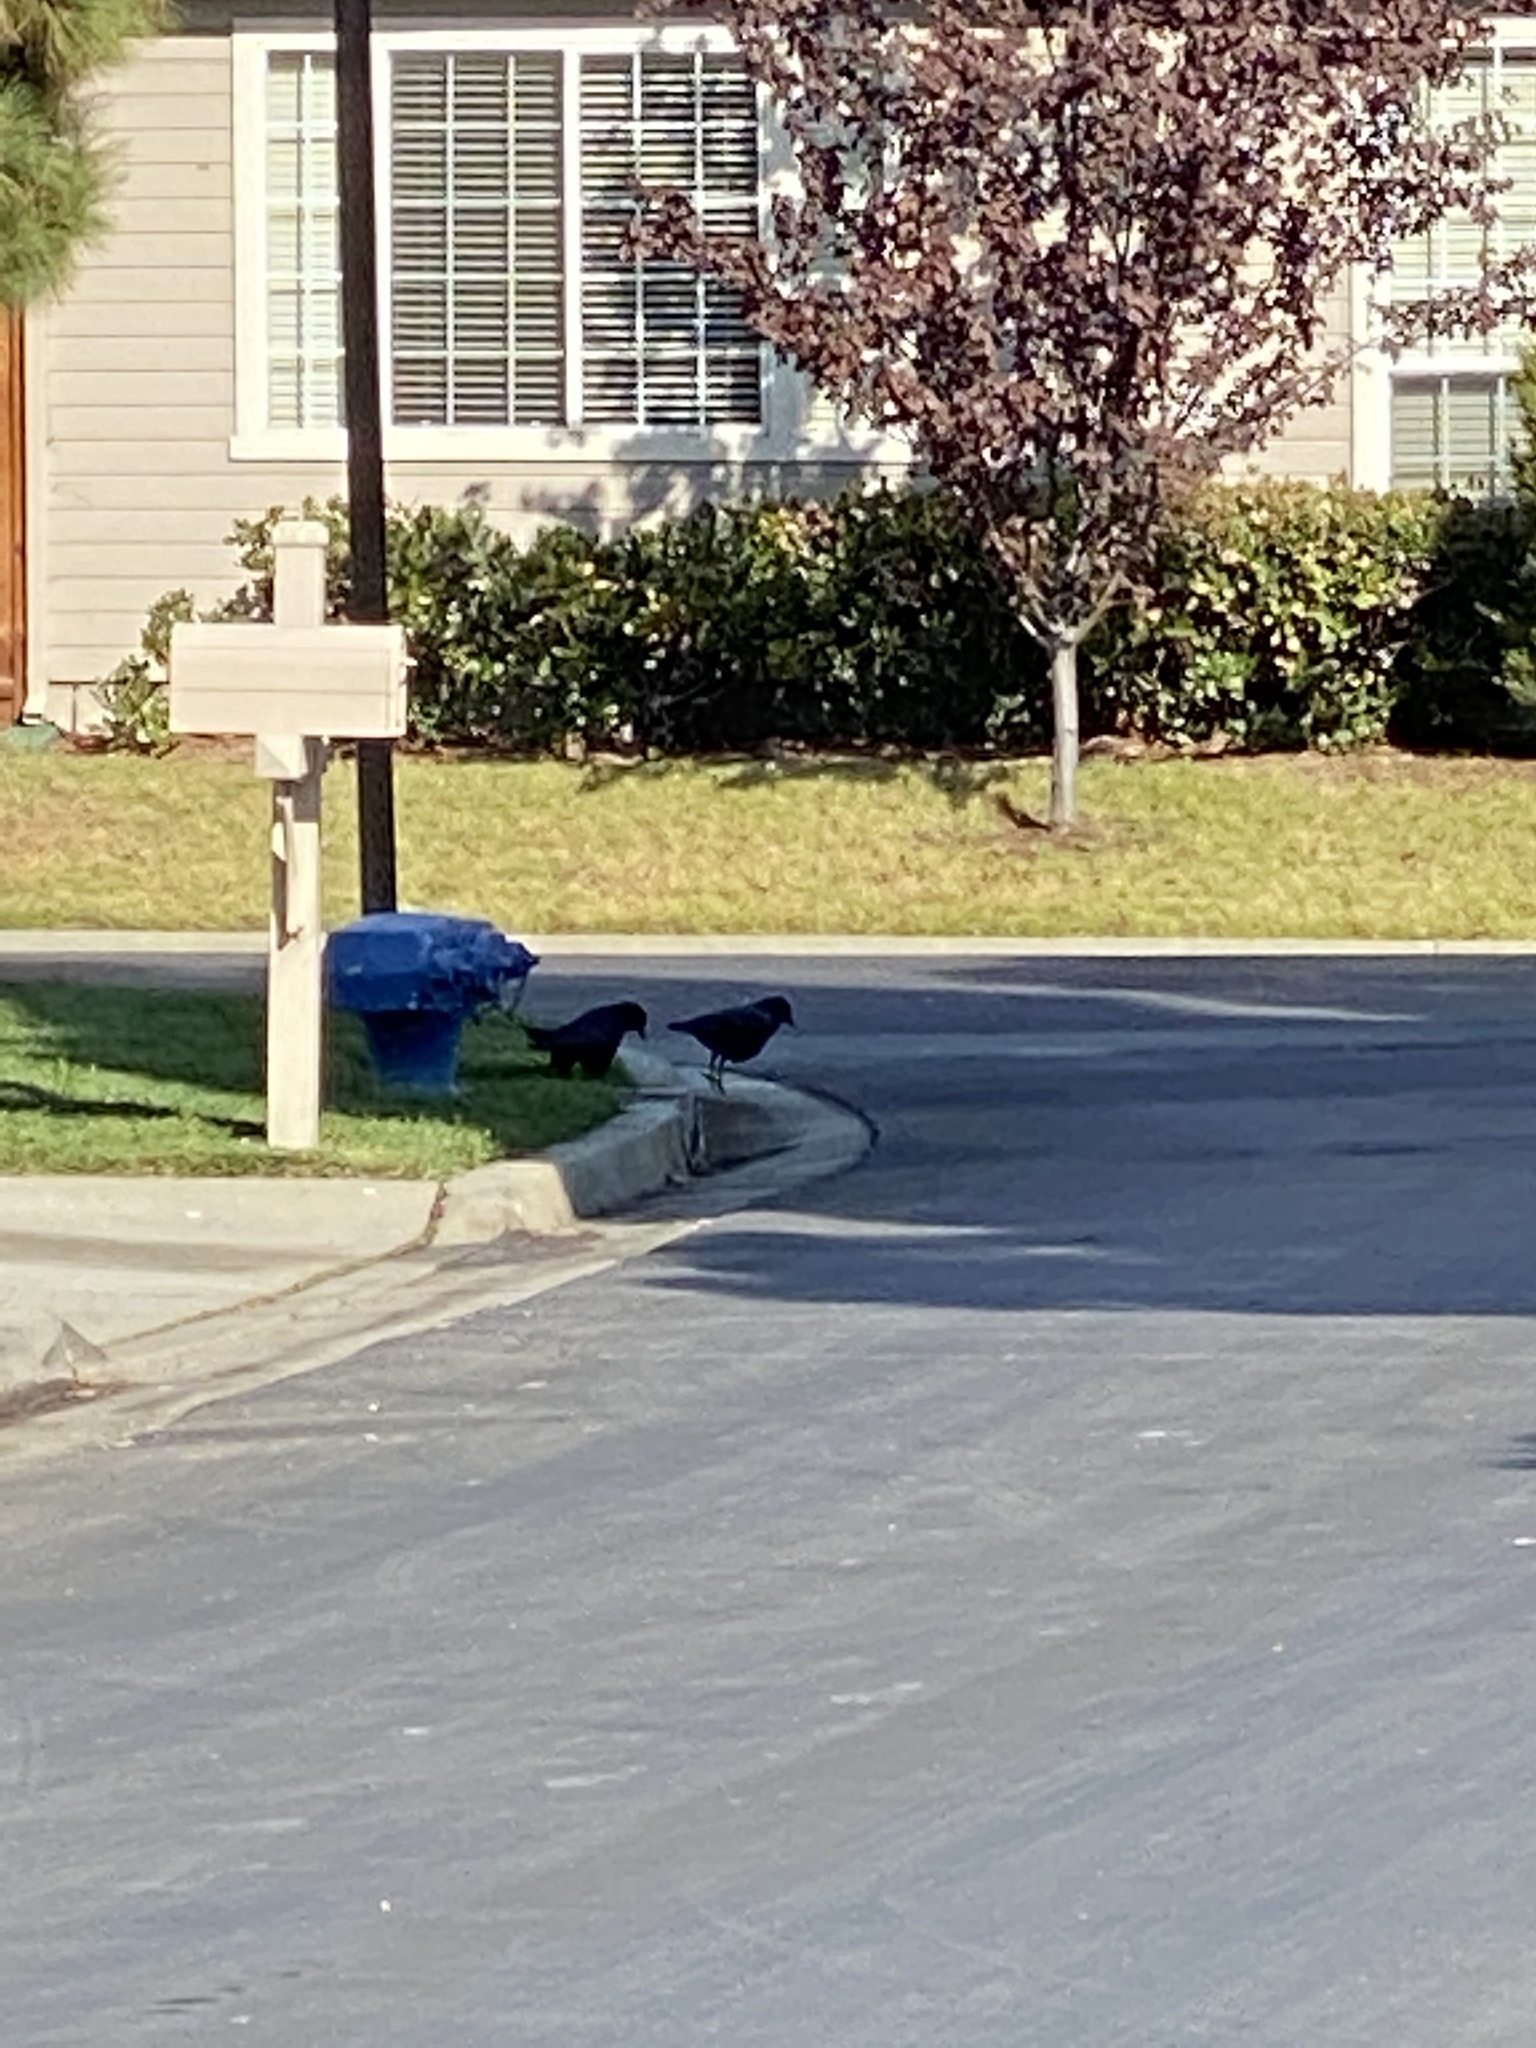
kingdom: Animalia
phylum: Chordata
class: Aves
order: Passeriformes
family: Corvidae
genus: Corvus
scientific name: Corvus brachyrhynchos
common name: American crow
